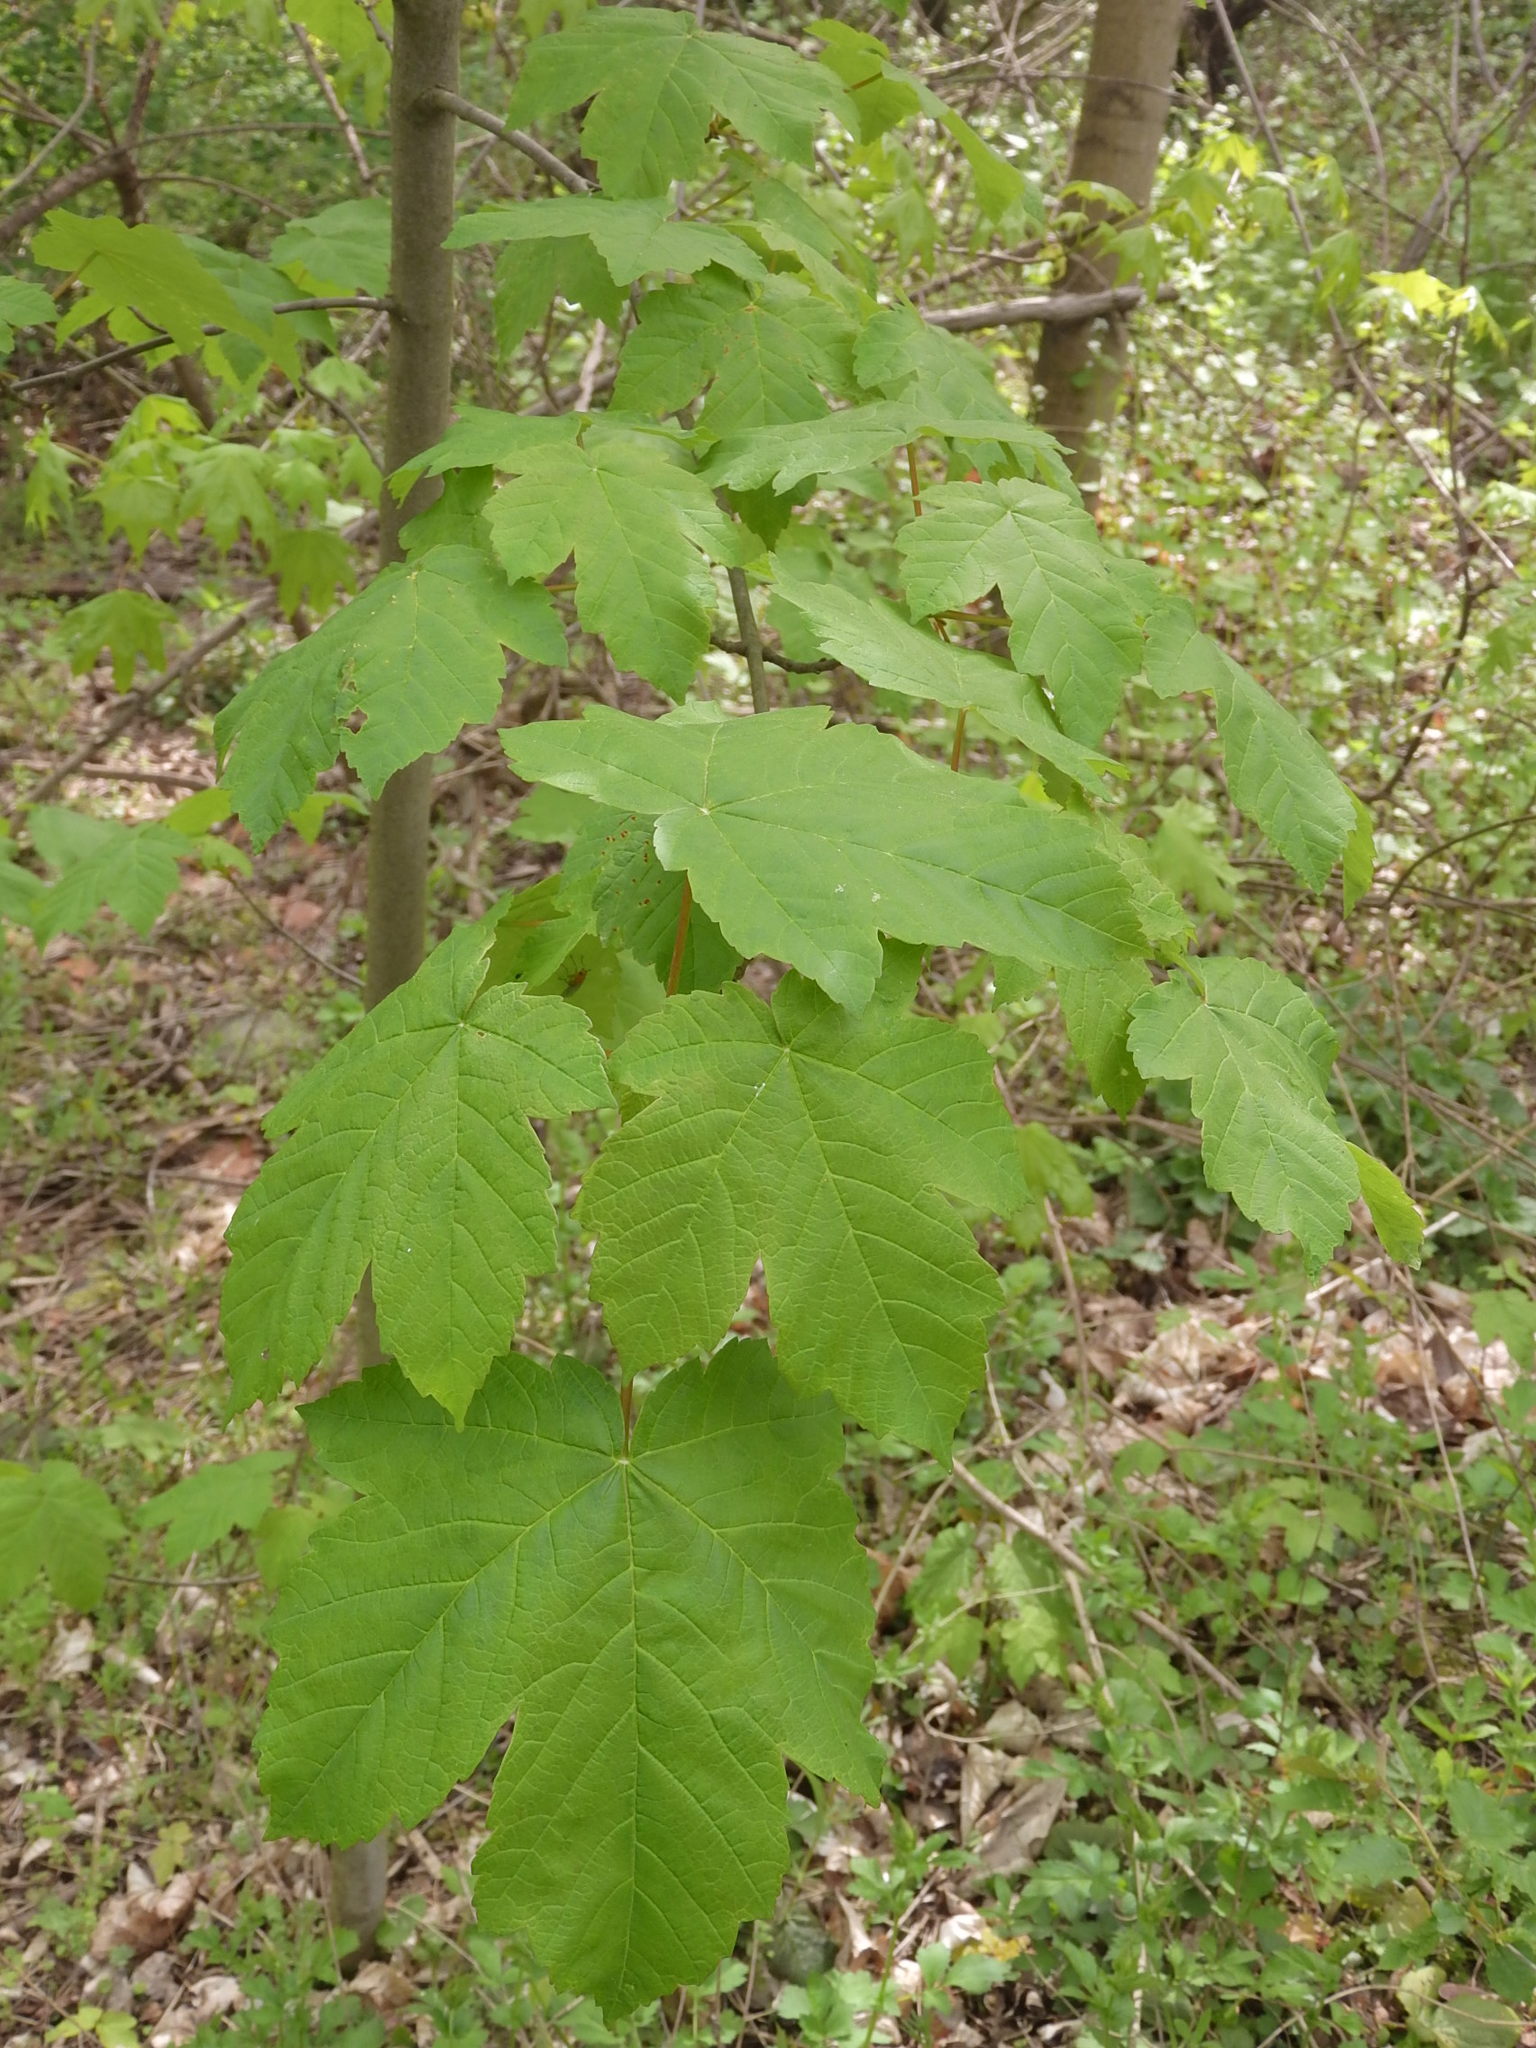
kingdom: Plantae
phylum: Tracheophyta
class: Magnoliopsida
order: Sapindales
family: Sapindaceae
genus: Acer
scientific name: Acer pseudoplatanus
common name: Sycamore
